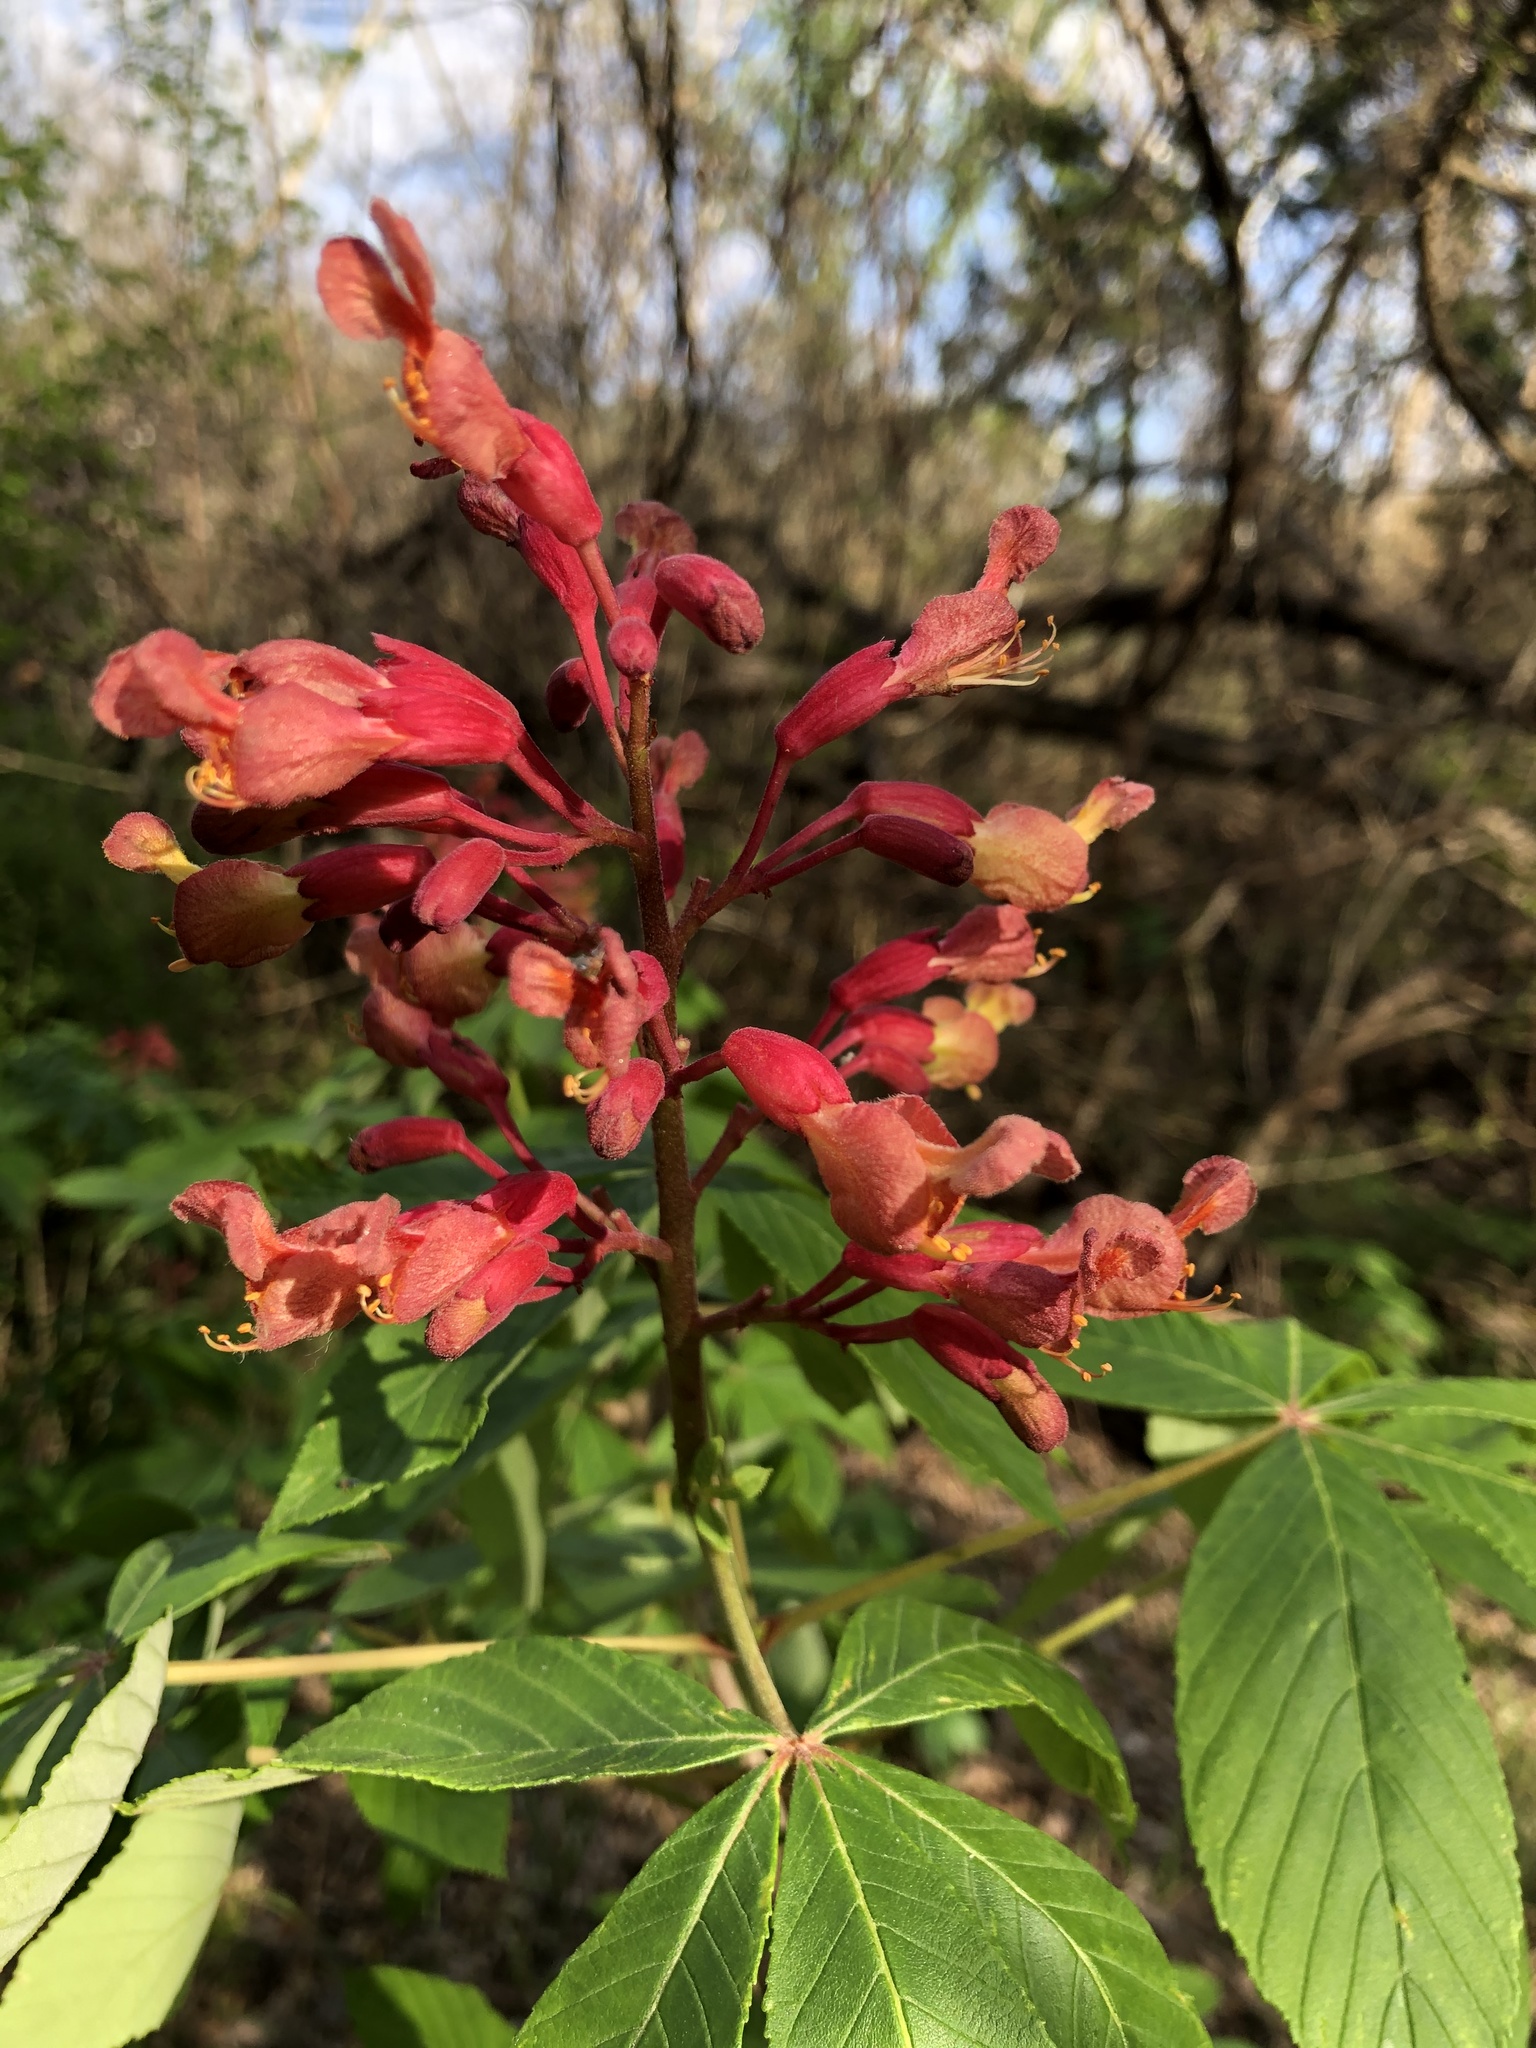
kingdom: Plantae
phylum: Tracheophyta
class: Magnoliopsida
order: Sapindales
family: Sapindaceae
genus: Aesculus
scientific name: Aesculus pavia
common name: Red buckeye
